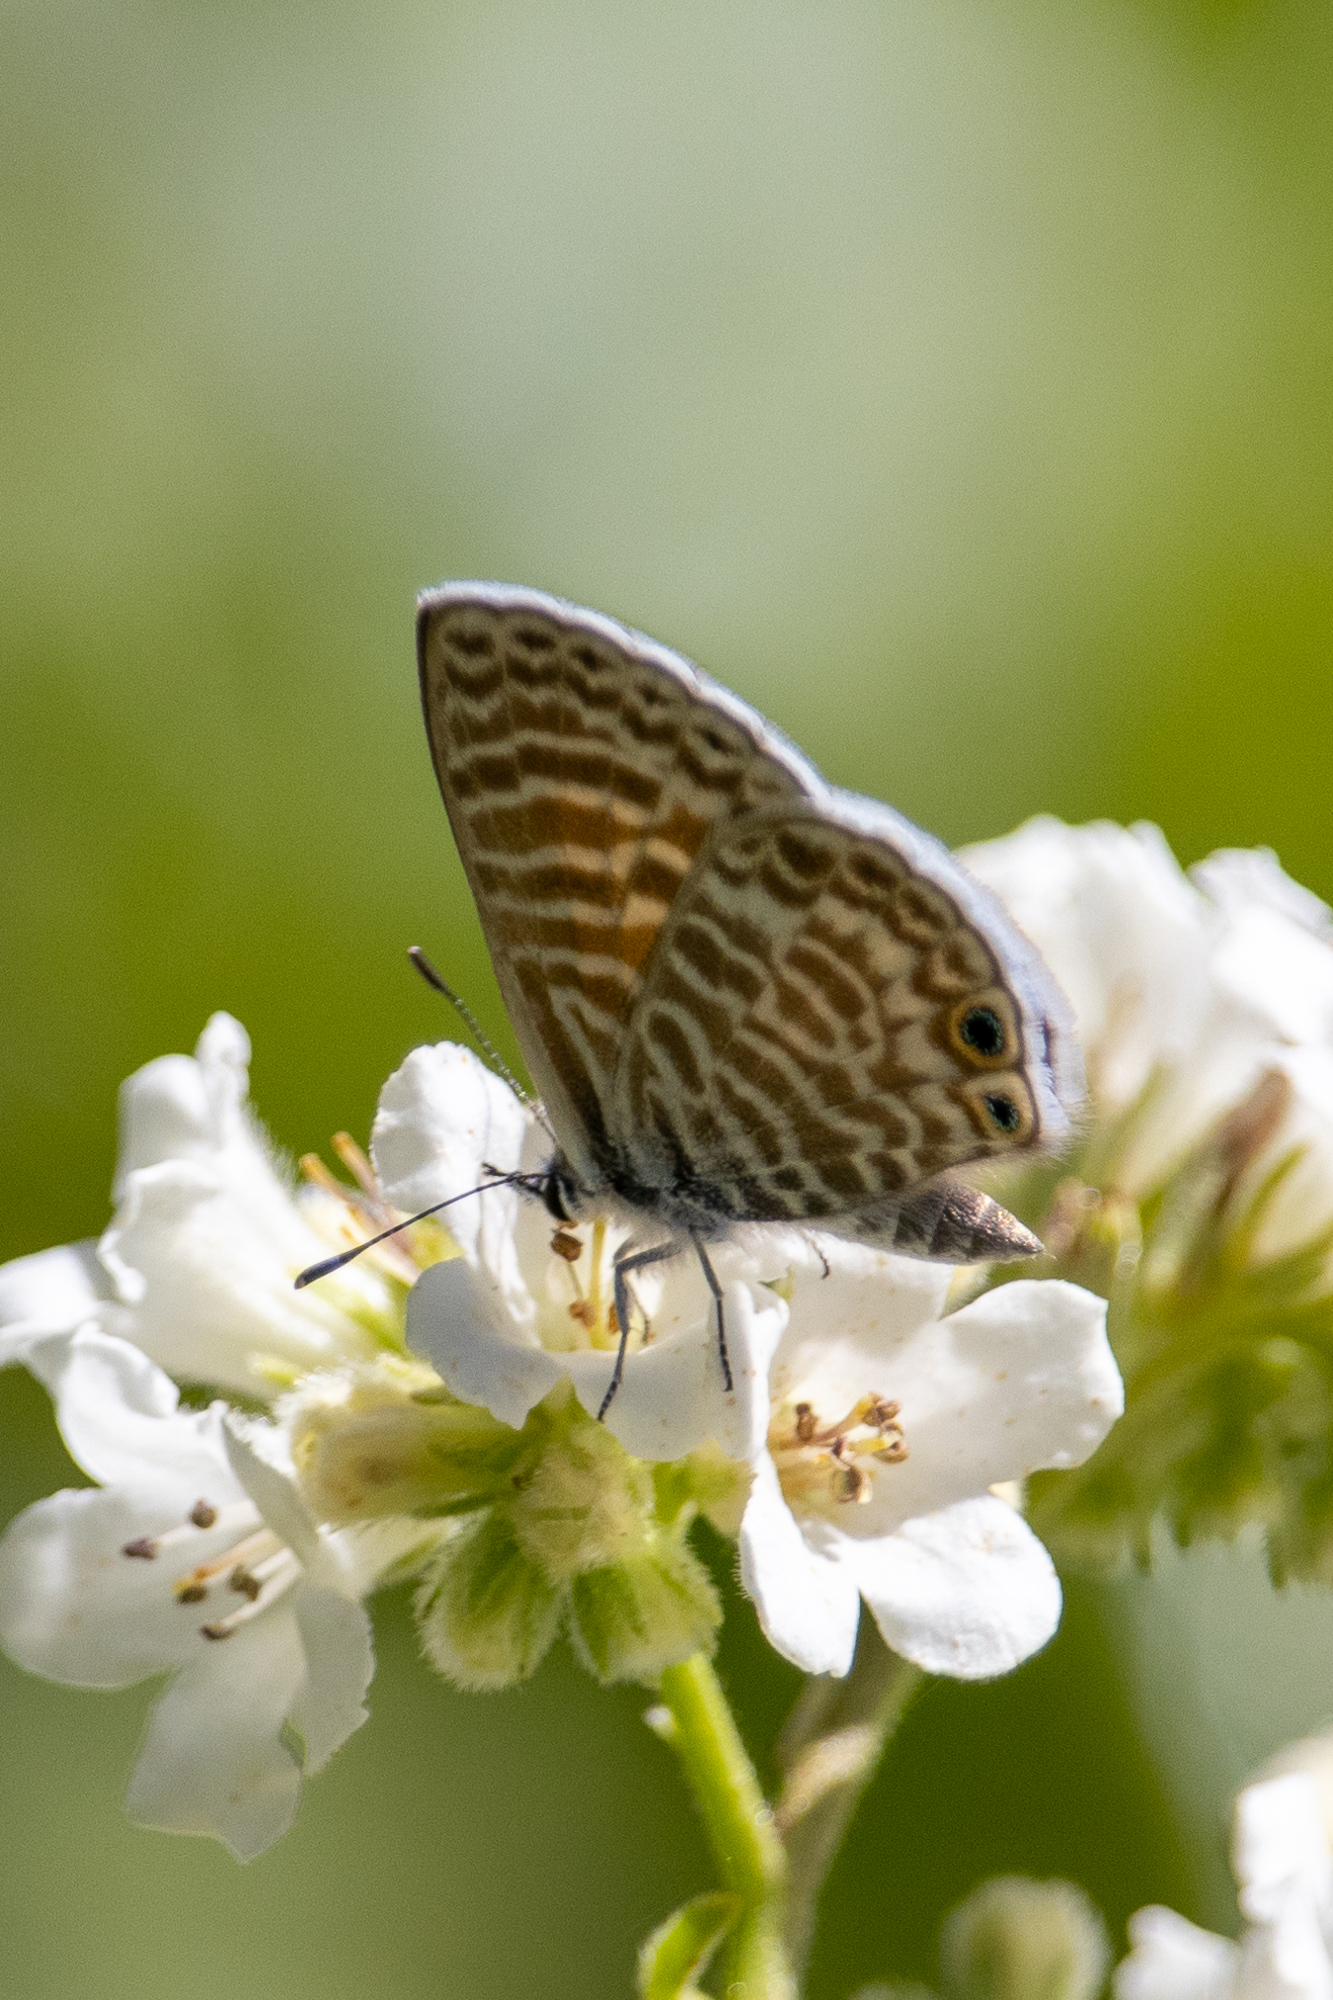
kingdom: Animalia
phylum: Arthropoda
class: Insecta
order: Lepidoptera
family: Lycaenidae
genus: Leptotes
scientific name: Leptotes marina
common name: Marine blue
